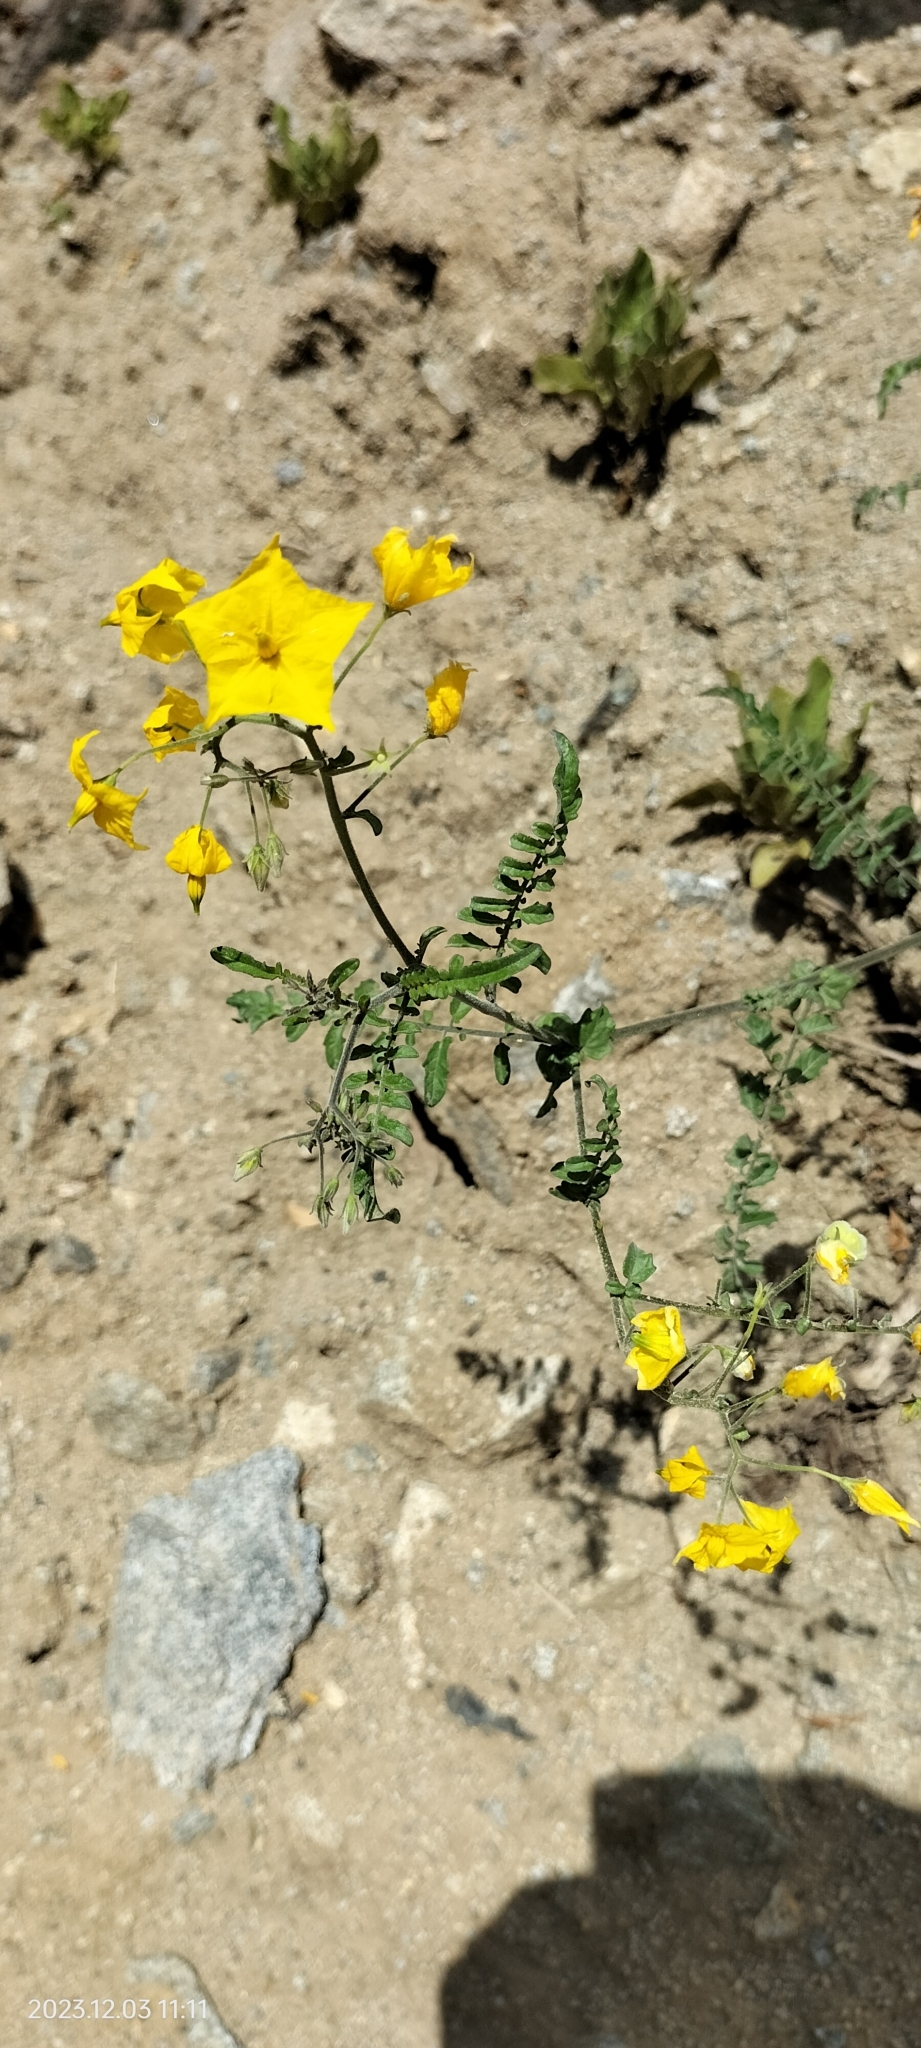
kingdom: Plantae
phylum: Tracheophyta
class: Magnoliopsida
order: Solanales
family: Solanaceae
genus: Solanum
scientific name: Solanum huaylasense
